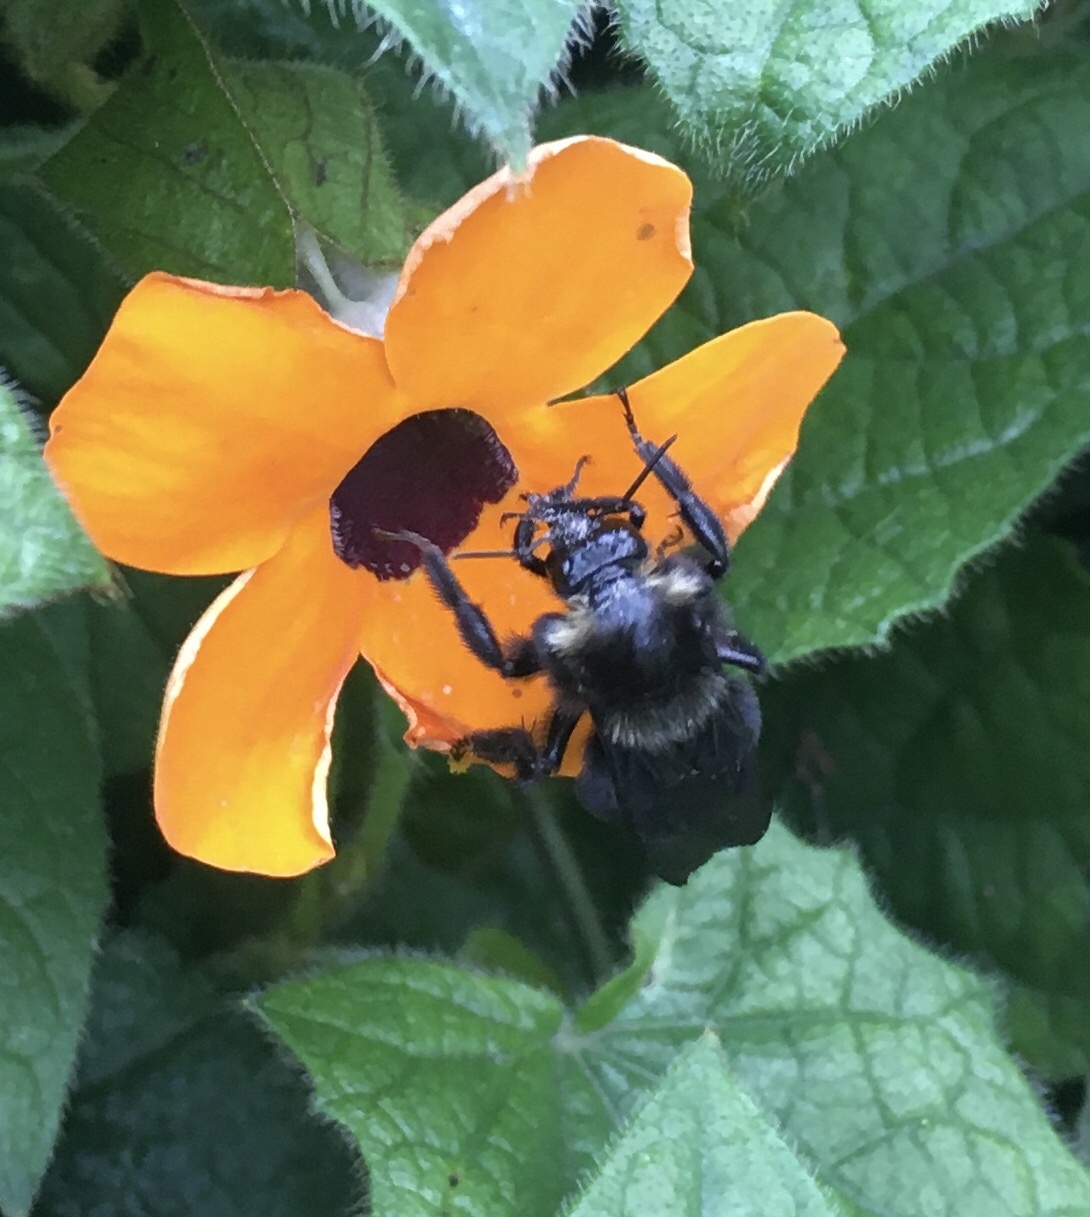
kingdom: Animalia
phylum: Arthropoda
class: Insecta
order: Hymenoptera
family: Apidae
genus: Bombus
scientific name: Bombus pauloensis
